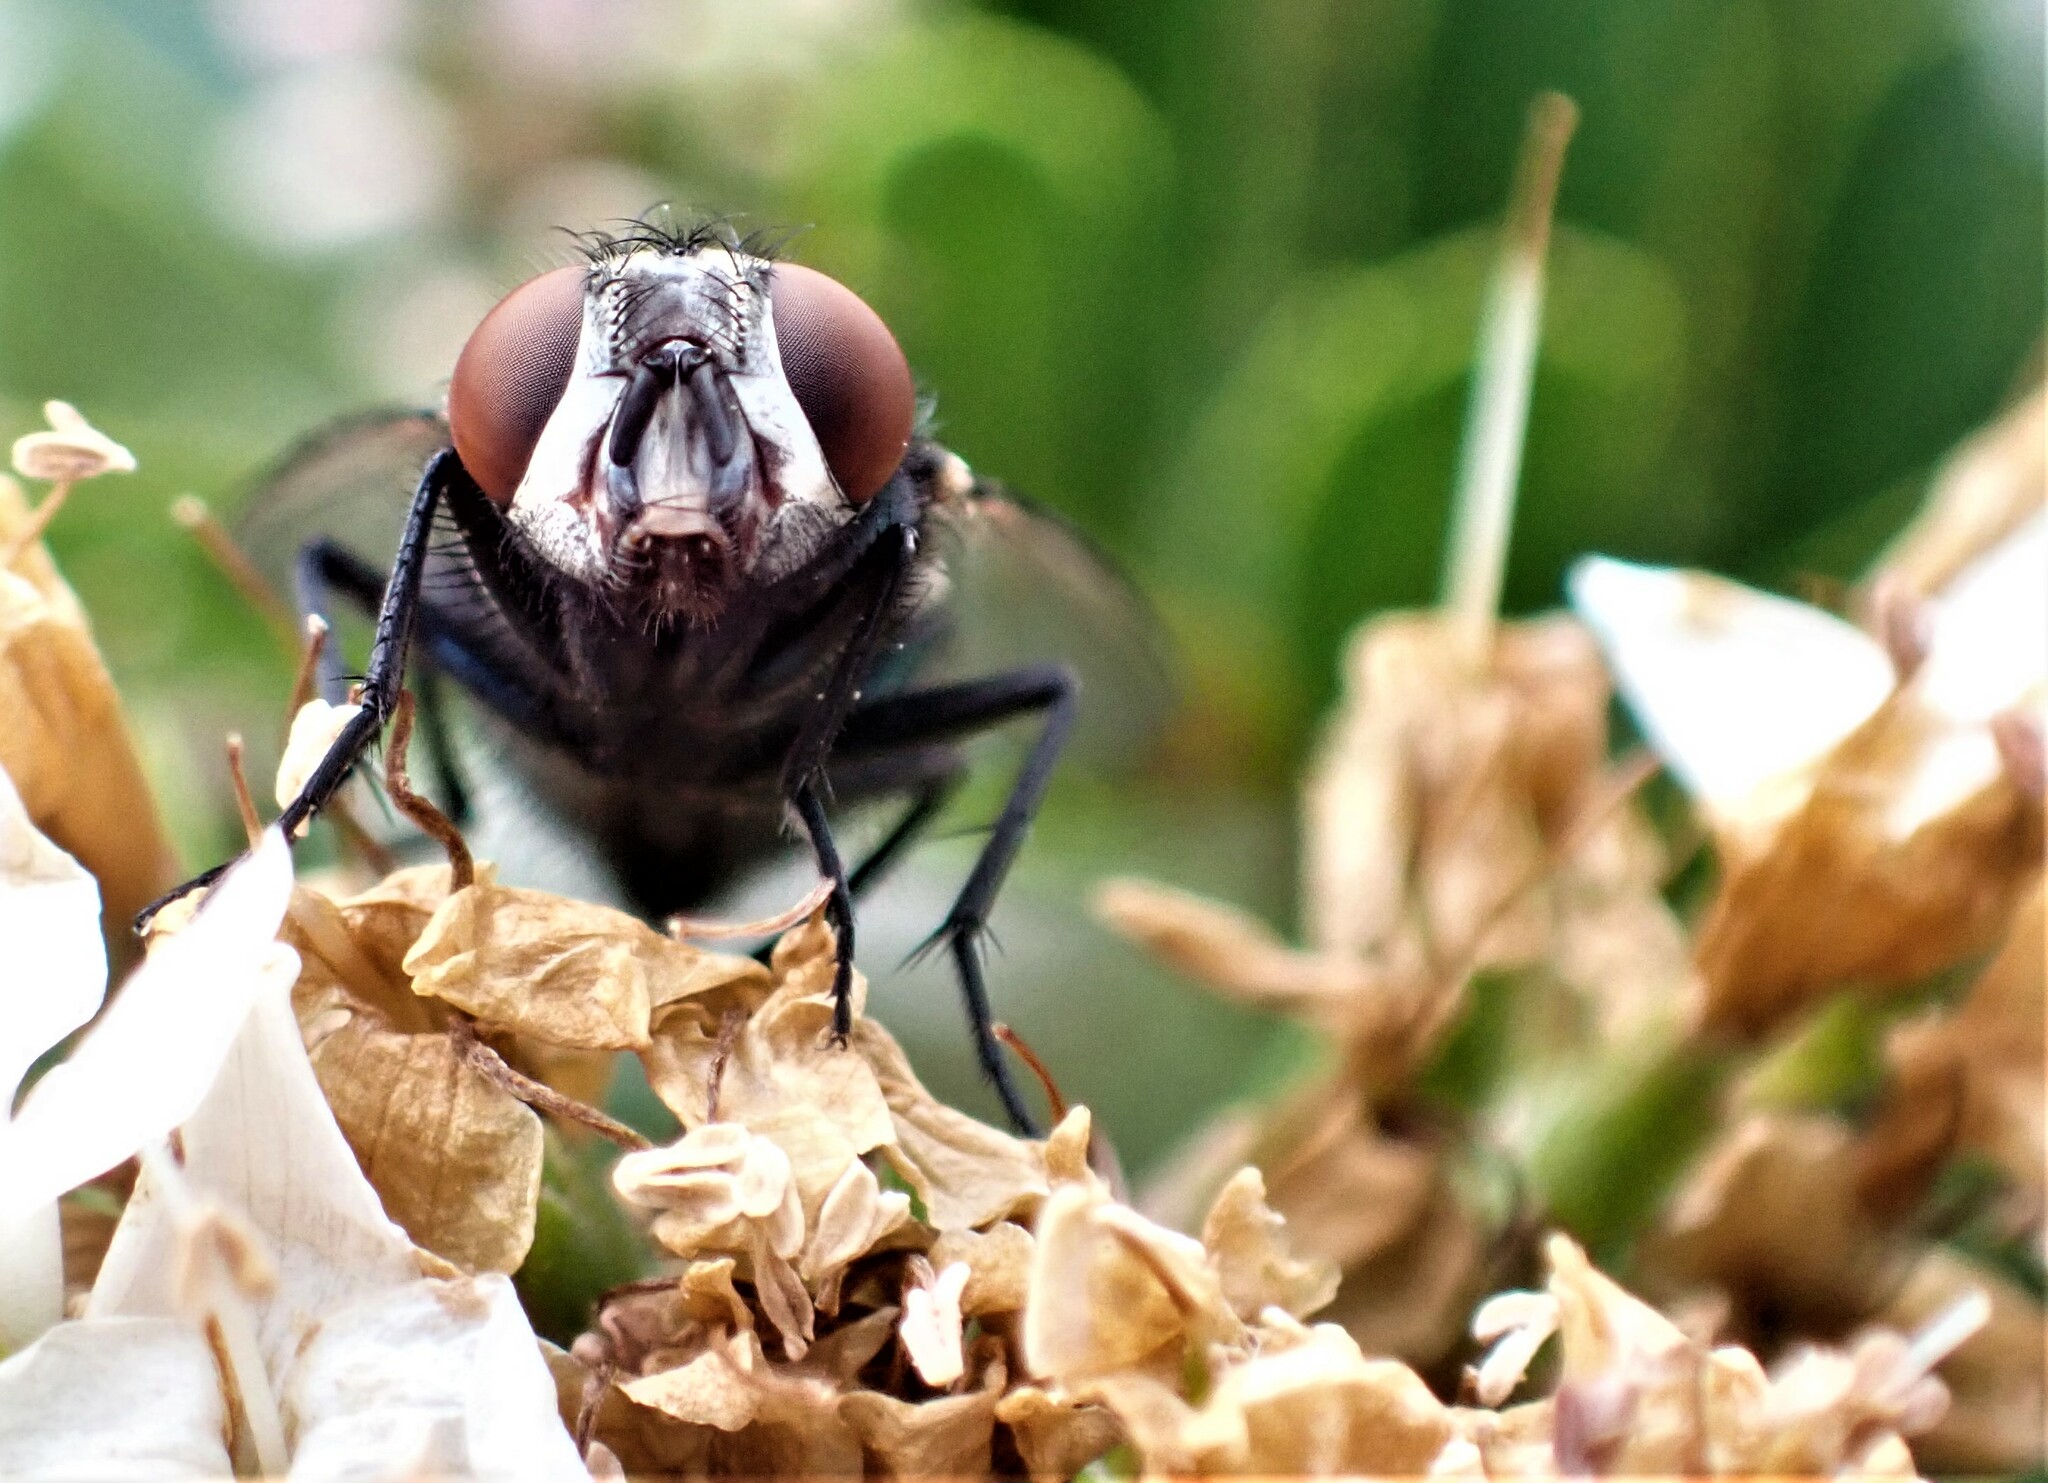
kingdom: Animalia
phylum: Arthropoda
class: Insecta
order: Diptera
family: Calliphoridae
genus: Lucilia
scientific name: Lucilia sericata
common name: Blow fly
